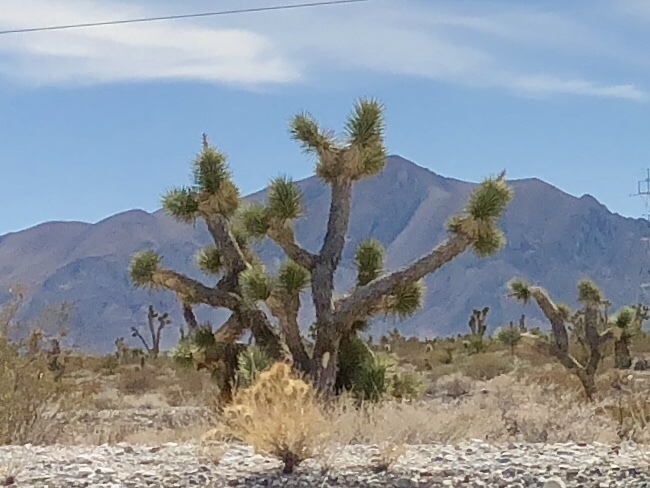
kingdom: Plantae
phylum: Tracheophyta
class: Liliopsida
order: Asparagales
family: Asparagaceae
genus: Yucca
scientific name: Yucca brevifolia
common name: Joshua tree
